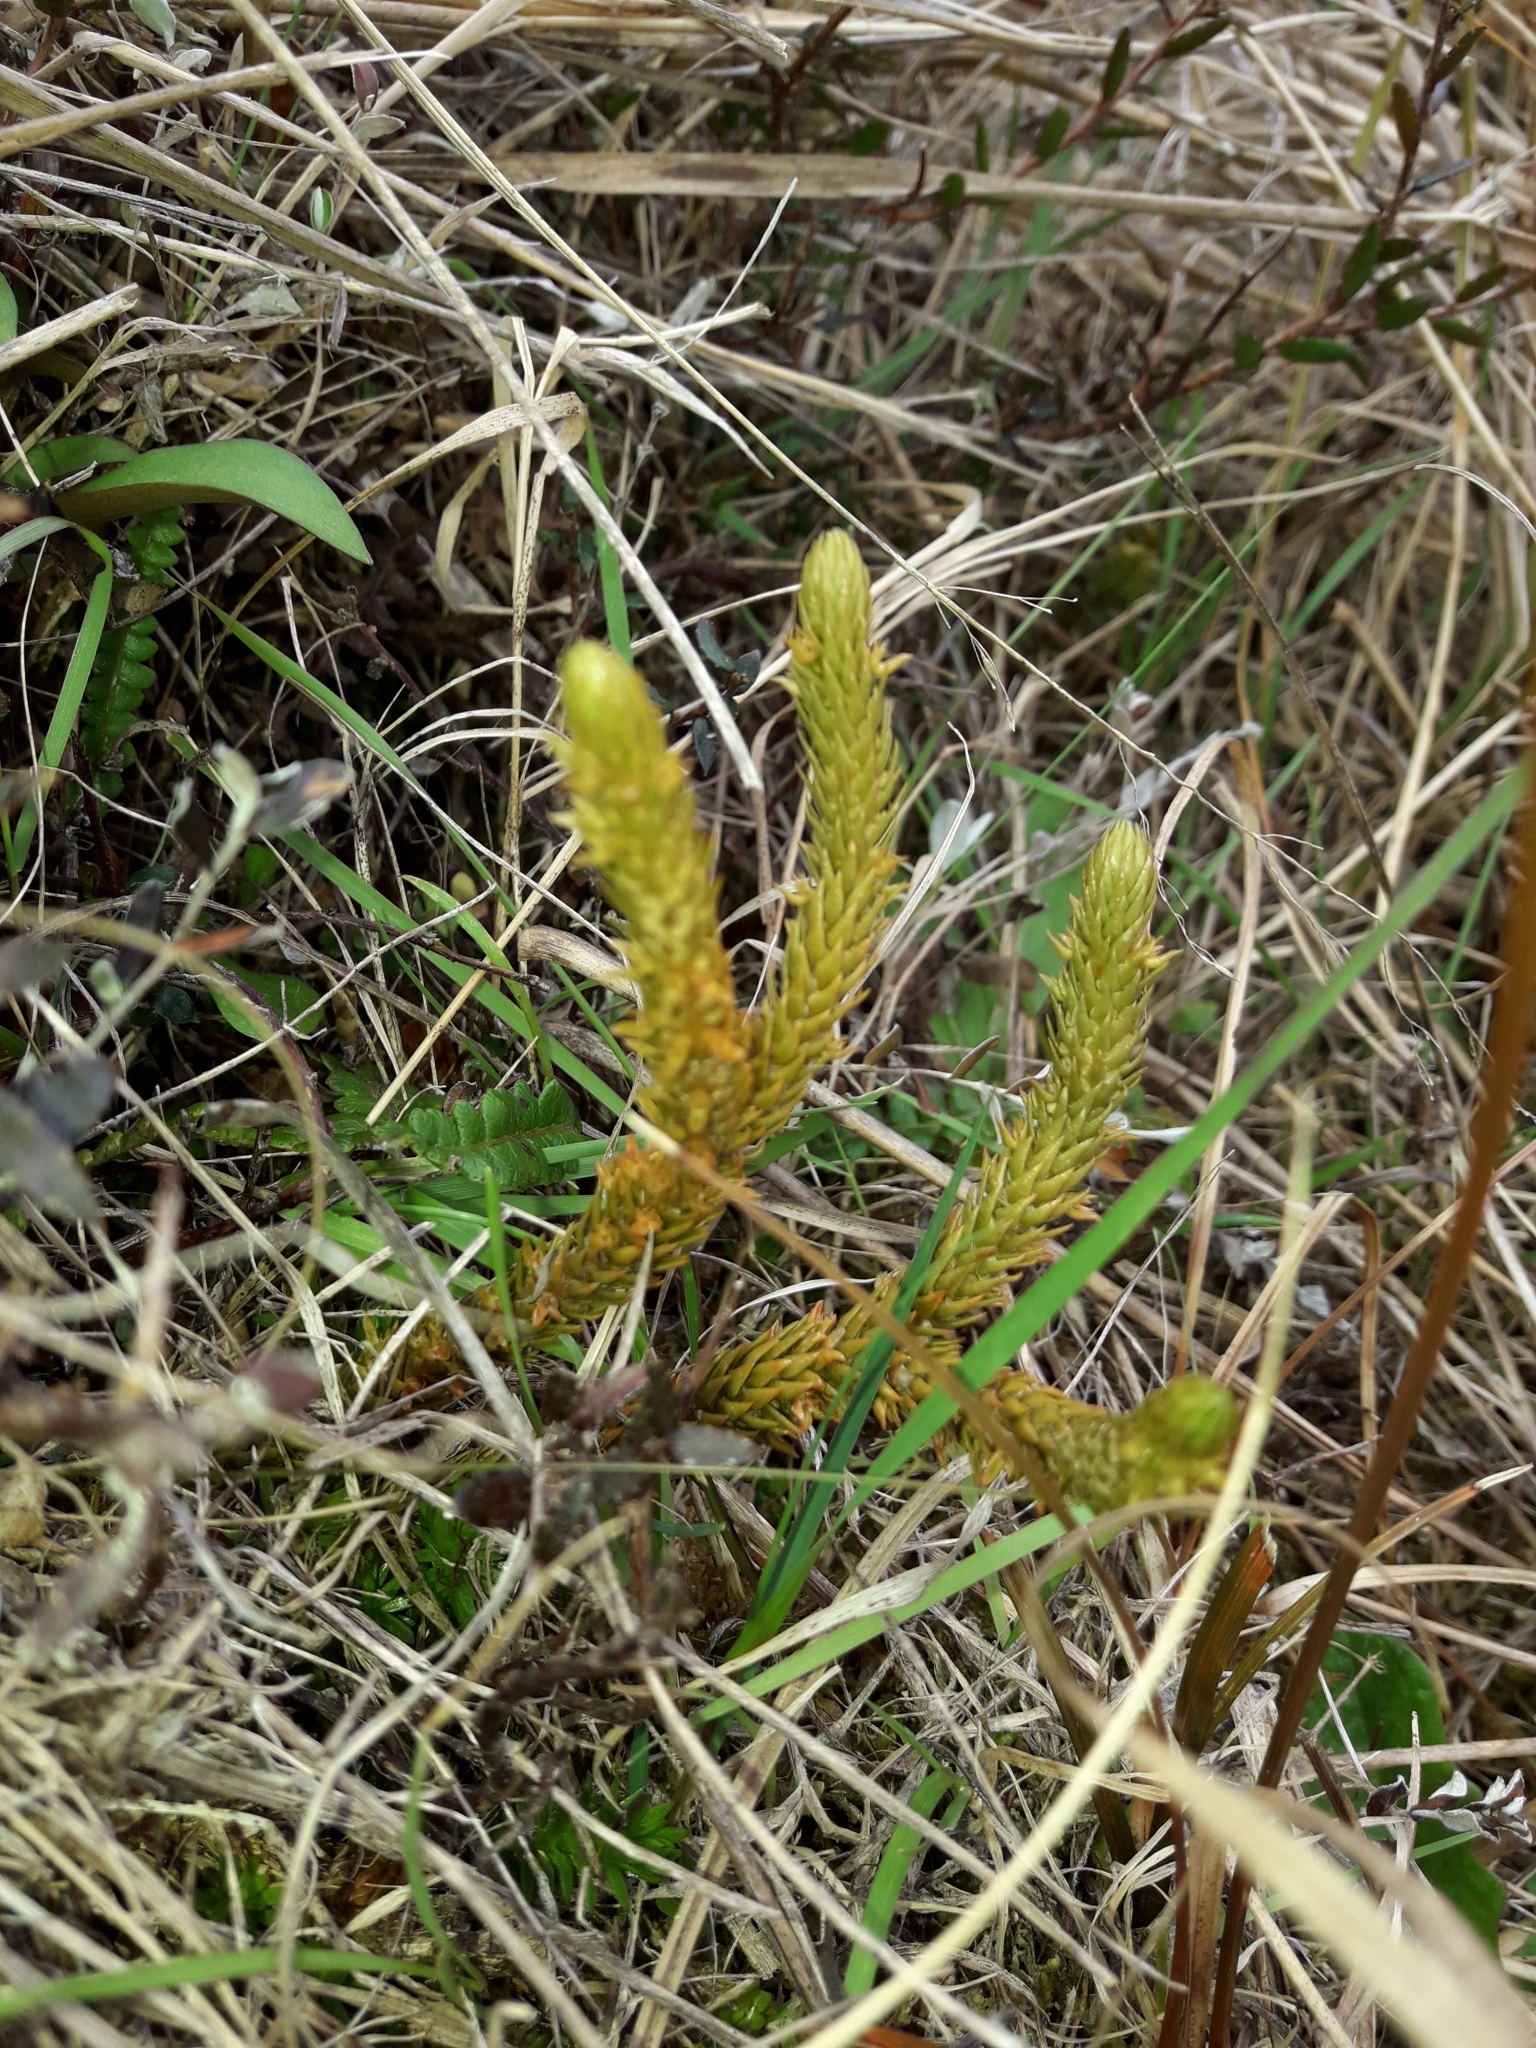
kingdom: Plantae
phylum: Tracheophyta
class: Lycopodiopsida
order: Lycopodiales
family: Lycopodiaceae
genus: Huperzia
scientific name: Huperzia australiana
